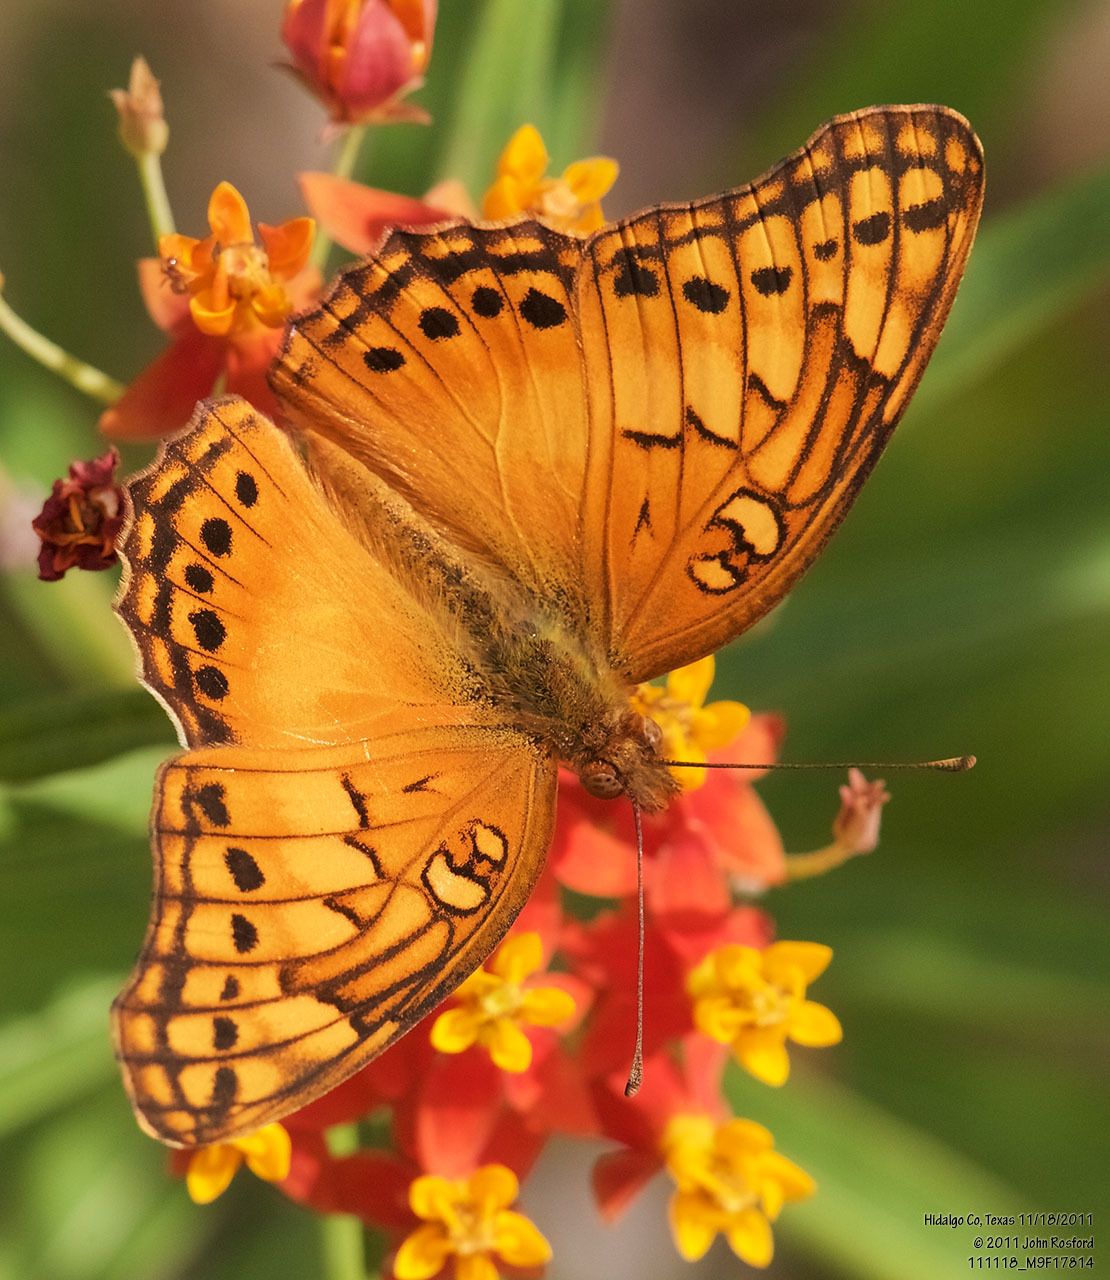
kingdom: Animalia
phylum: Arthropoda
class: Insecta
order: Lepidoptera
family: Nymphalidae
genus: Euptoieta
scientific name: Euptoieta hegesia
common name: Mexican fritillary
